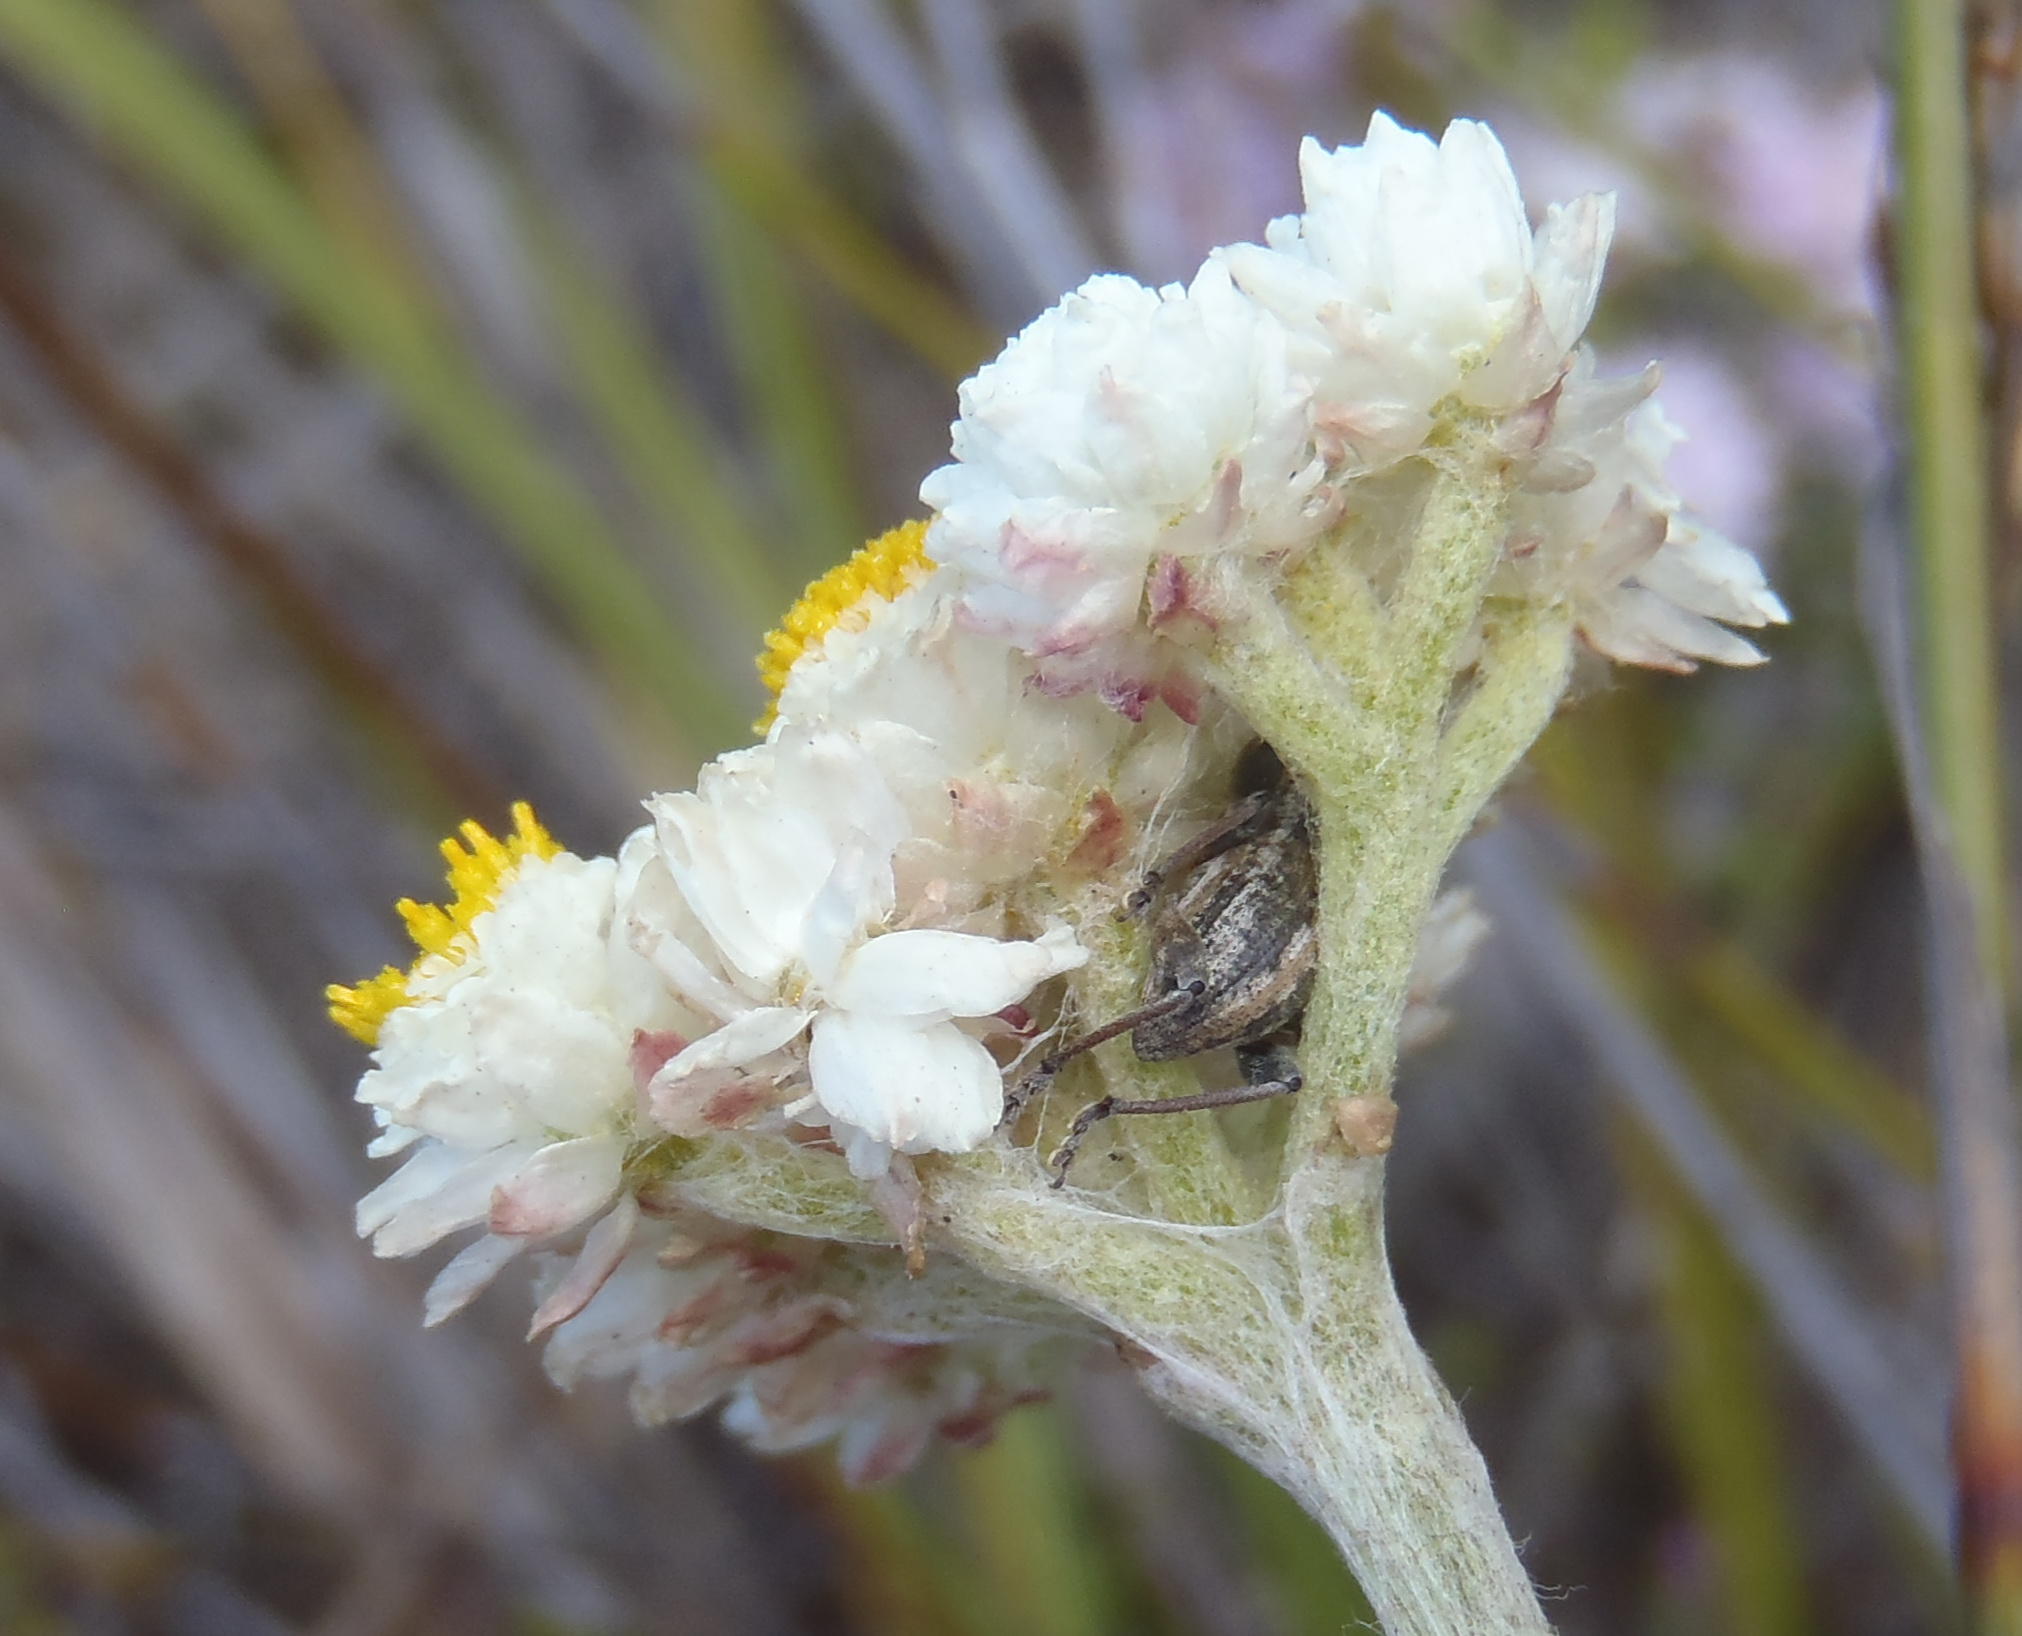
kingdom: Plantae
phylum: Tracheophyta
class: Magnoliopsida
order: Asterales
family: Asteraceae
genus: Helichrysum
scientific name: Helichrysum felinum
